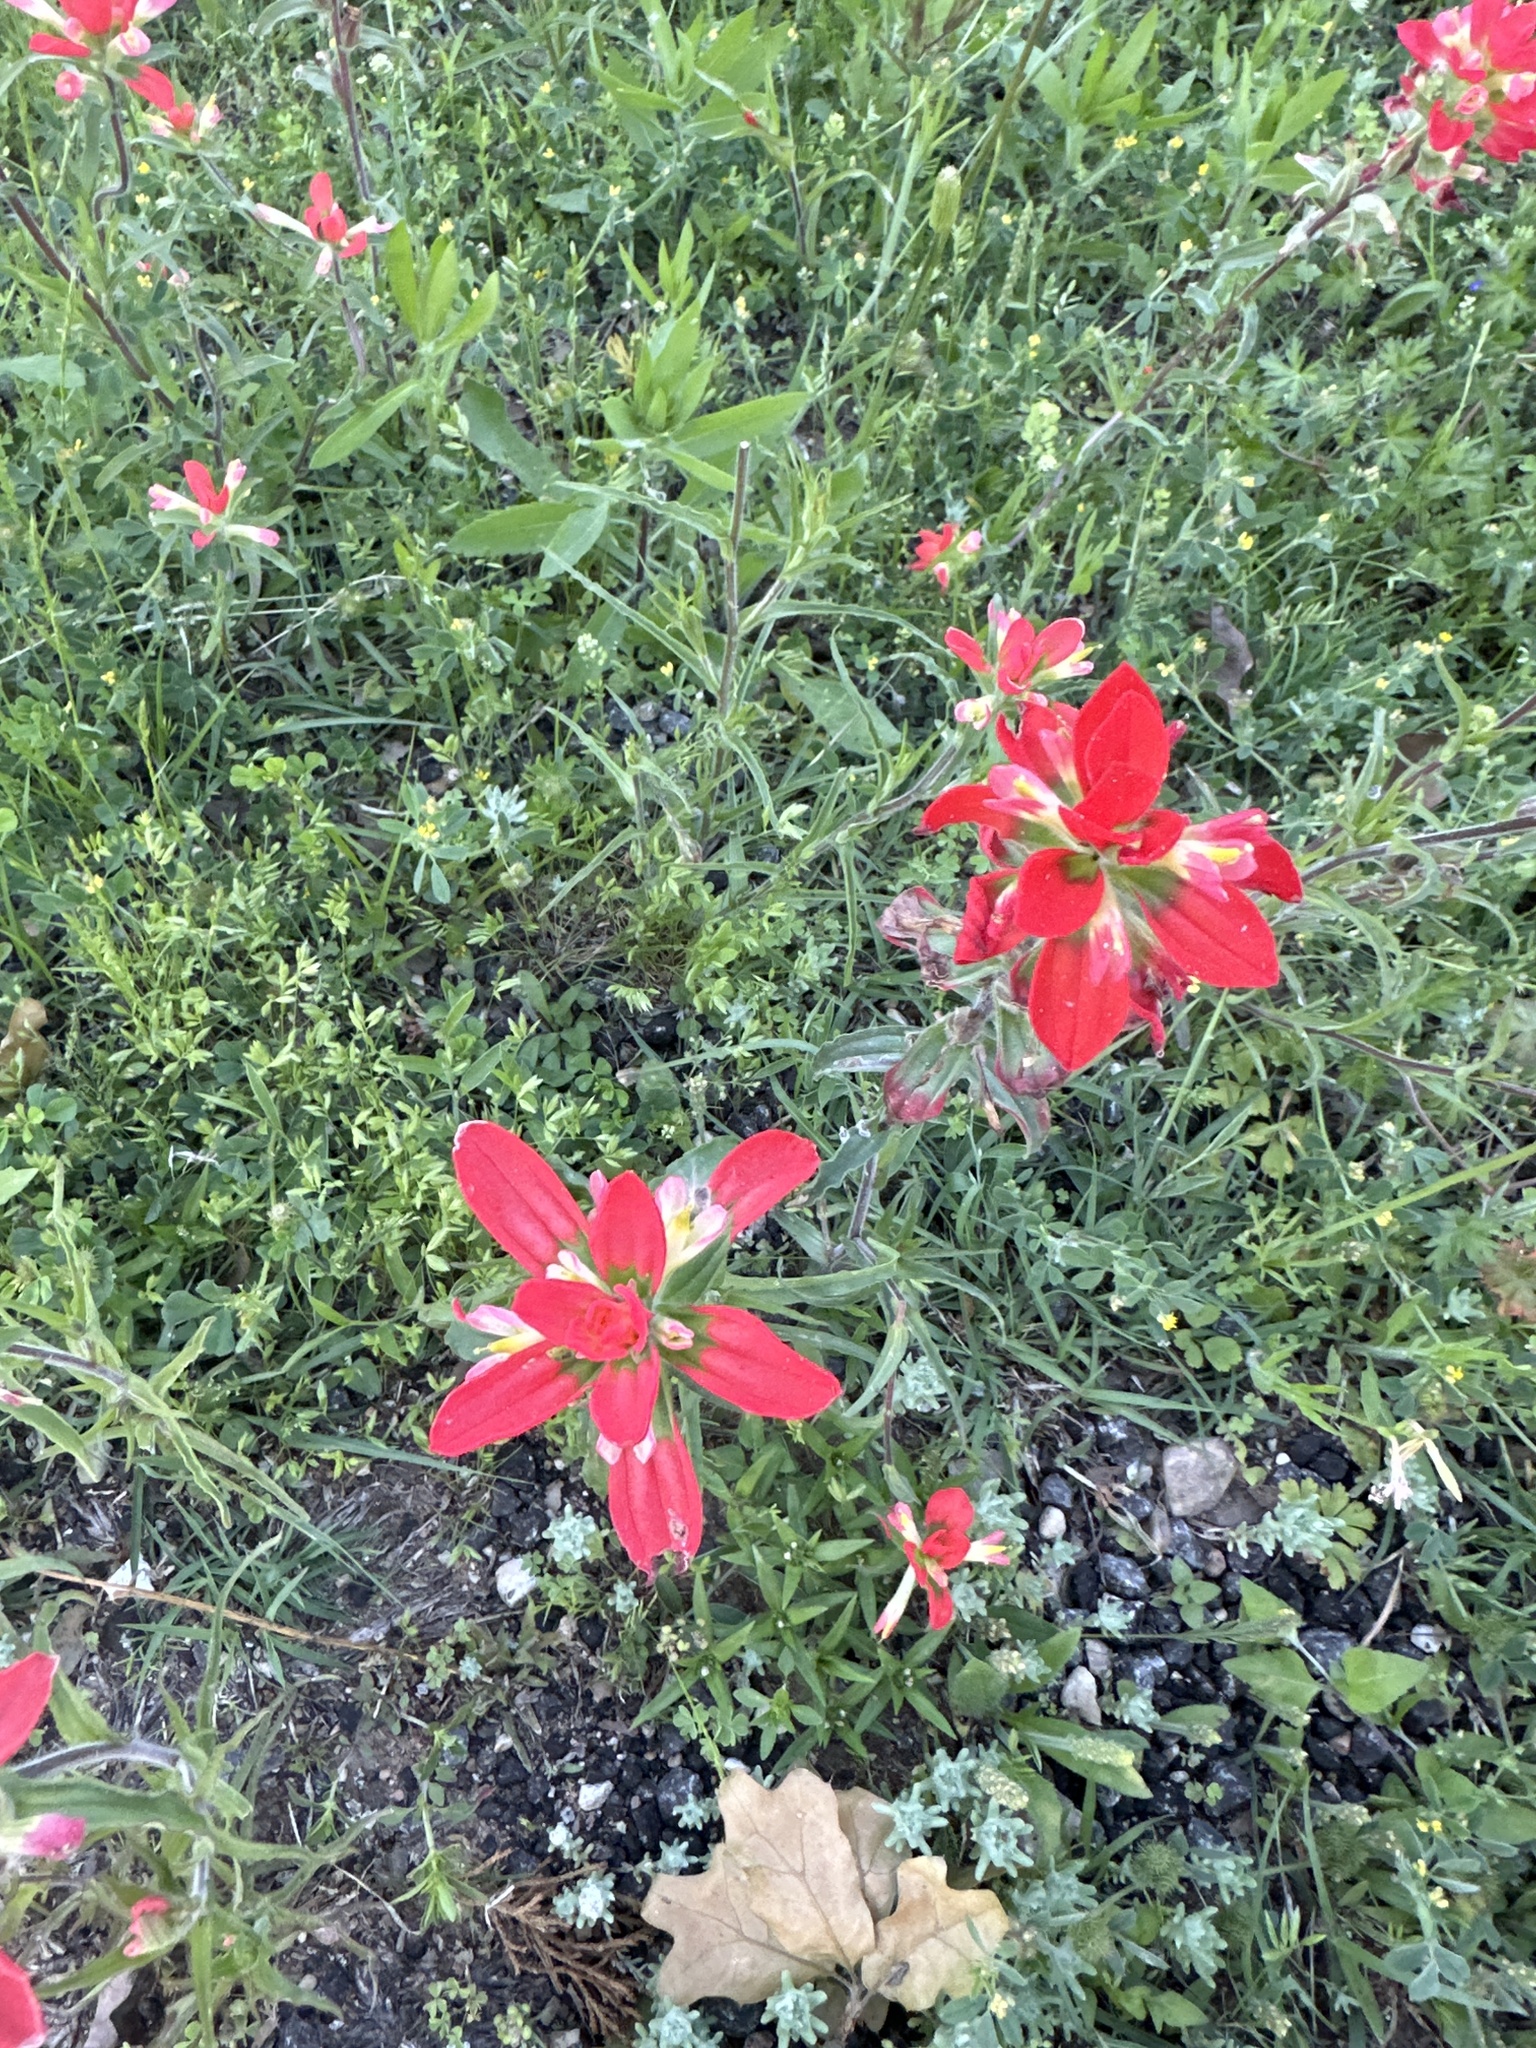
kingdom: Plantae
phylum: Tracheophyta
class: Magnoliopsida
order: Lamiales
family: Orobanchaceae
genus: Castilleja
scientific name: Castilleja indivisa
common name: Texas paintbrush
